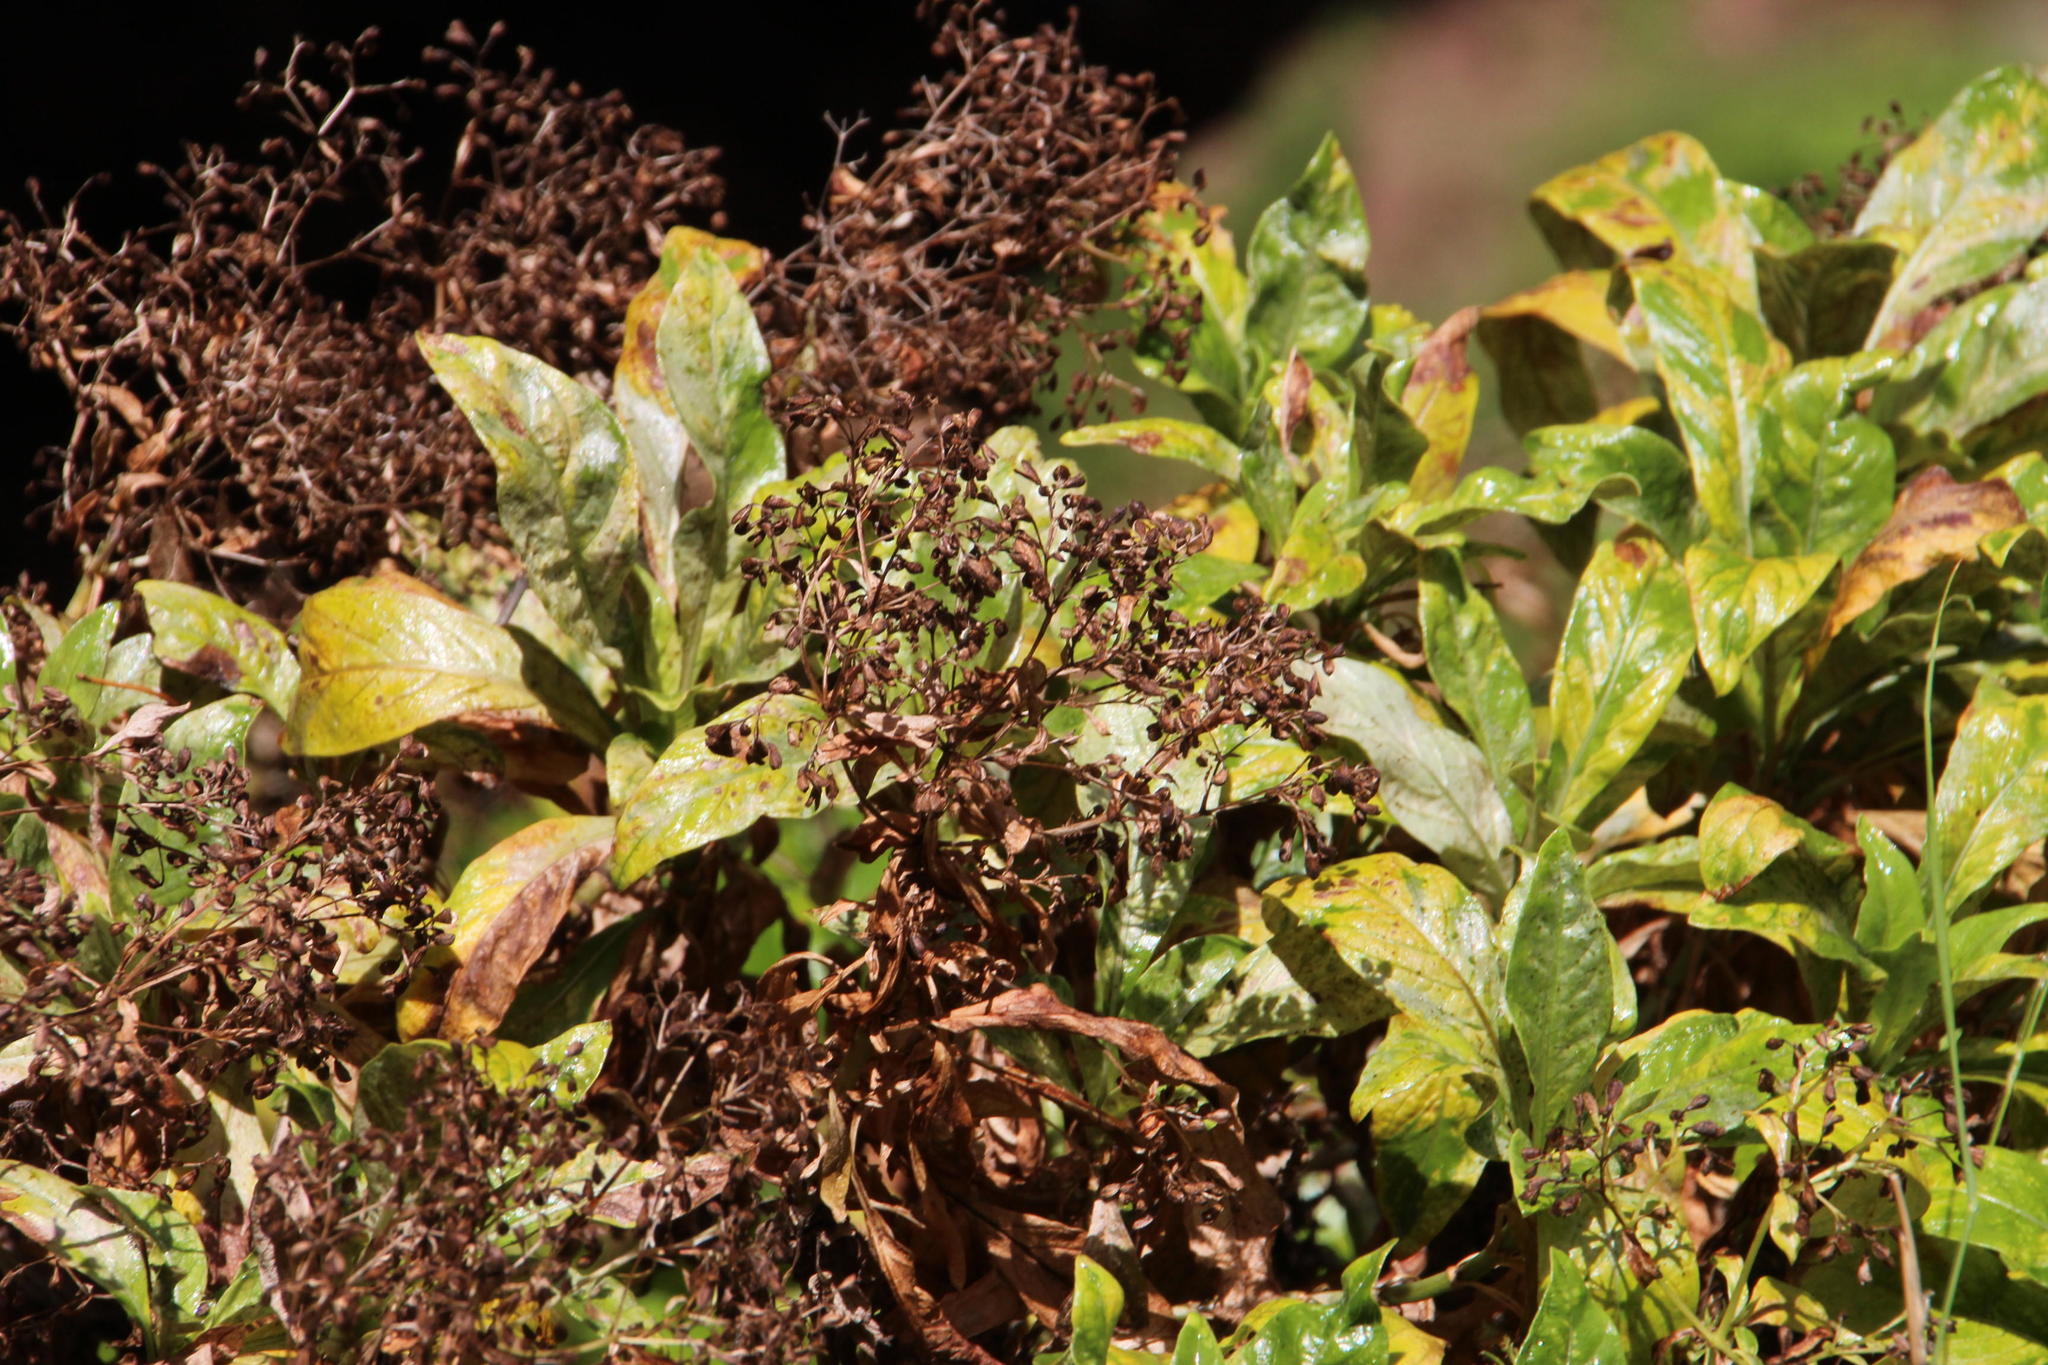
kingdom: Plantae
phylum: Tracheophyta
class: Magnoliopsida
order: Gentianales
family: Rubiaceae
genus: Phyllis
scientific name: Phyllis nobla
